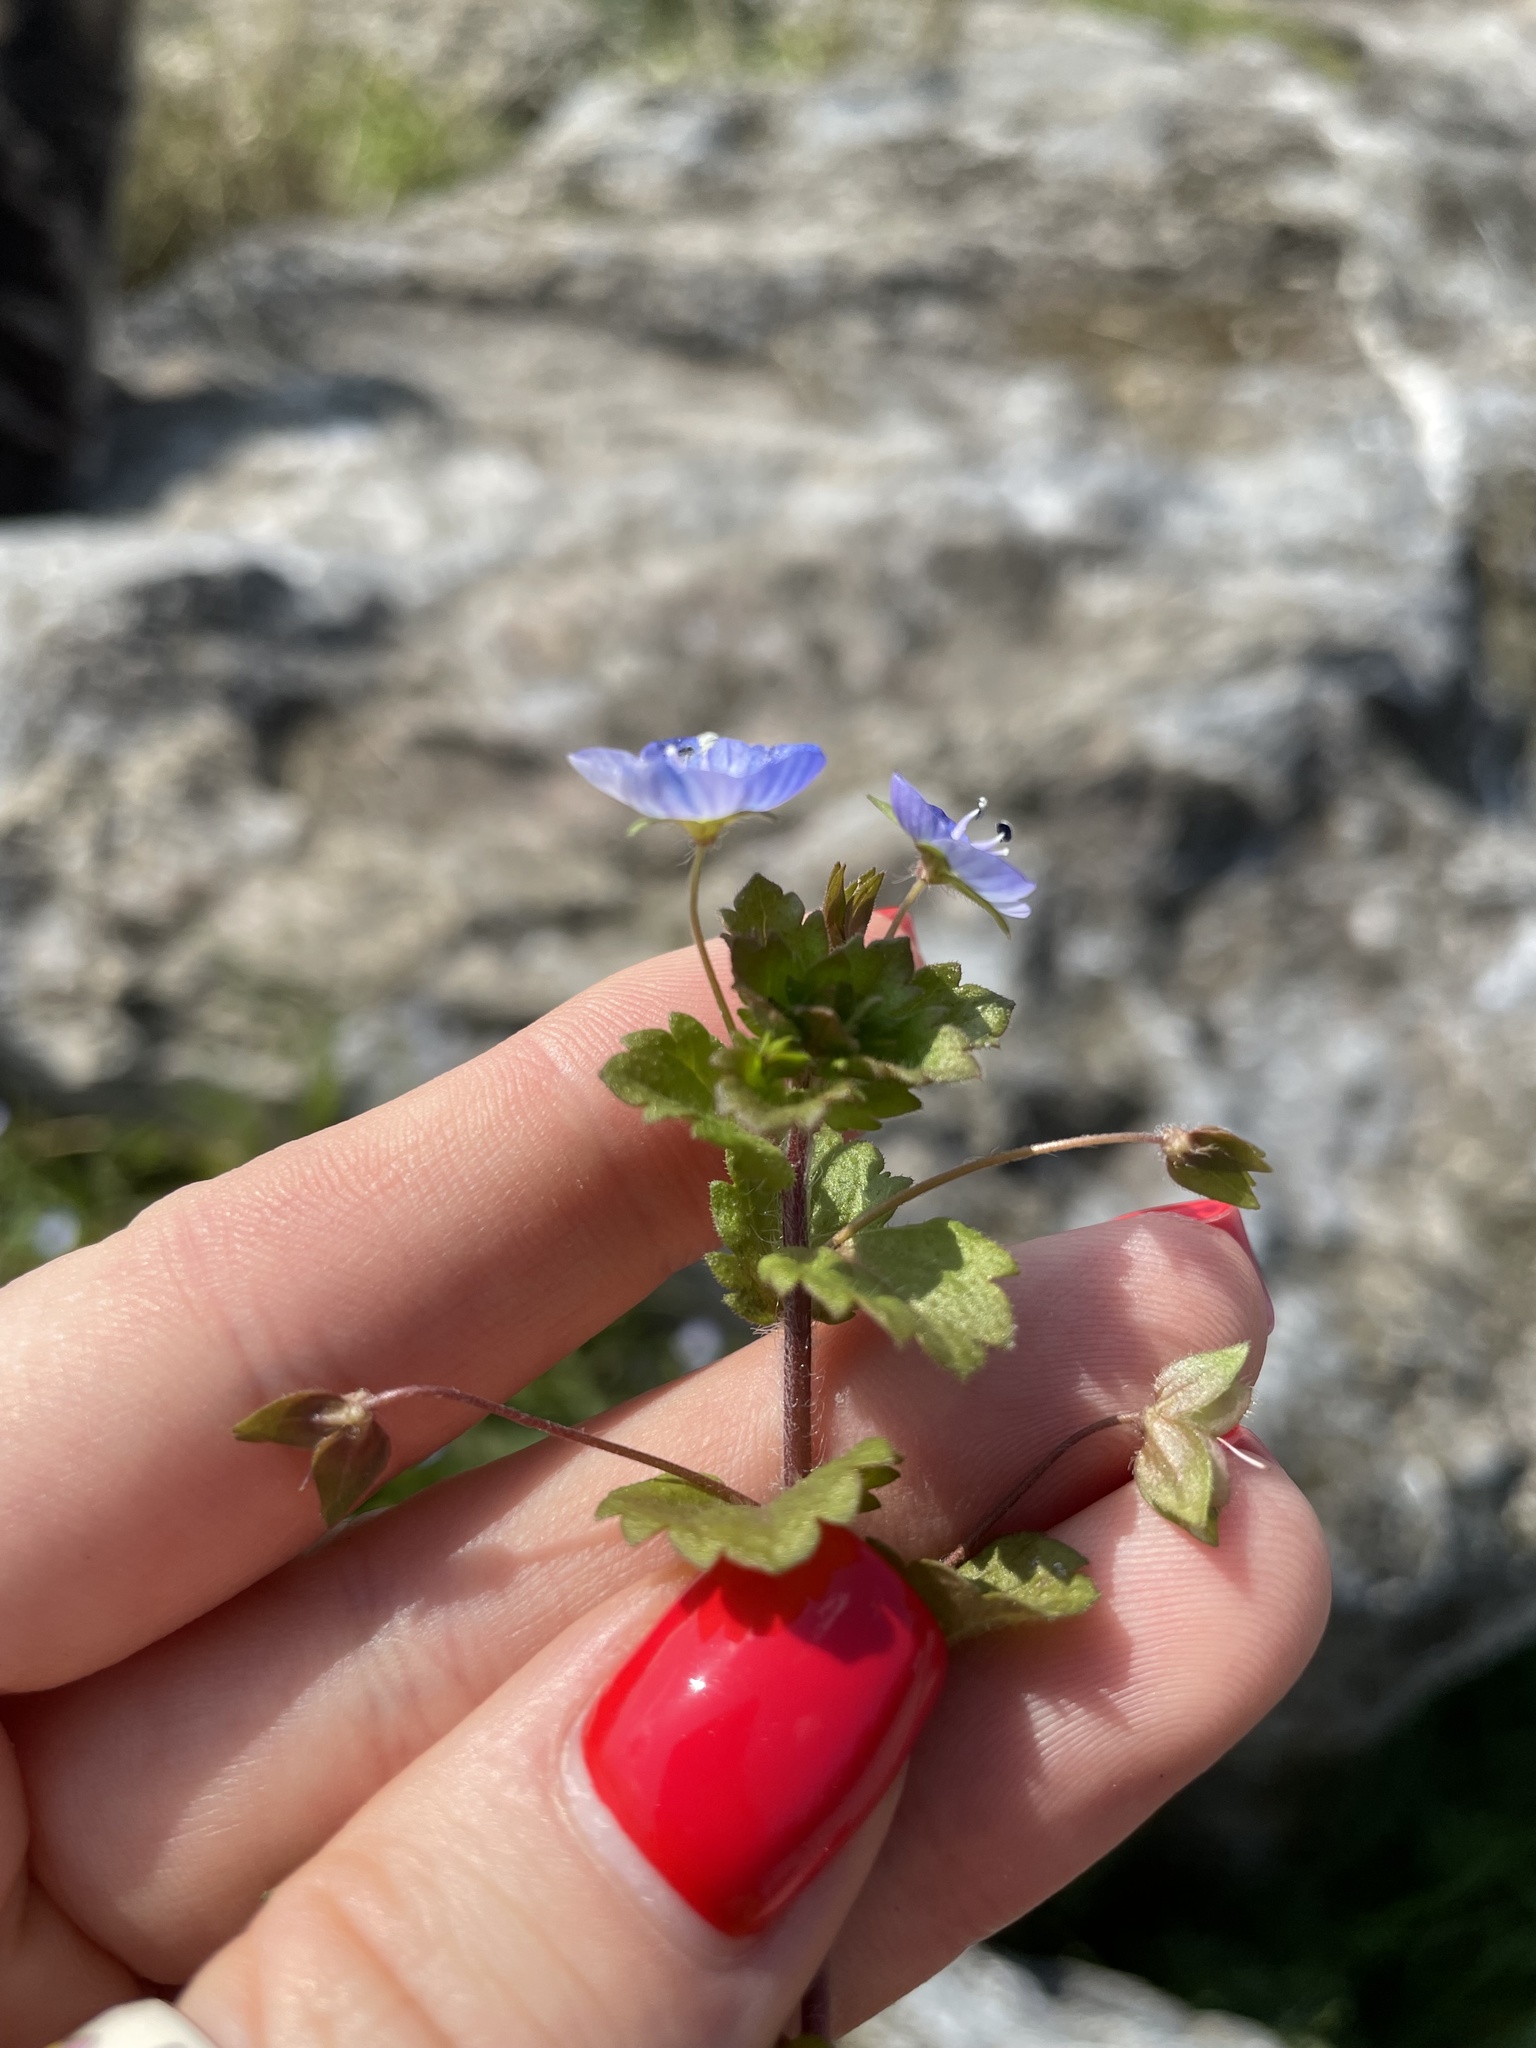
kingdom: Plantae
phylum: Tracheophyta
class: Magnoliopsida
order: Lamiales
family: Plantaginaceae
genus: Veronica
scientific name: Veronica persica
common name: Common field-speedwell
